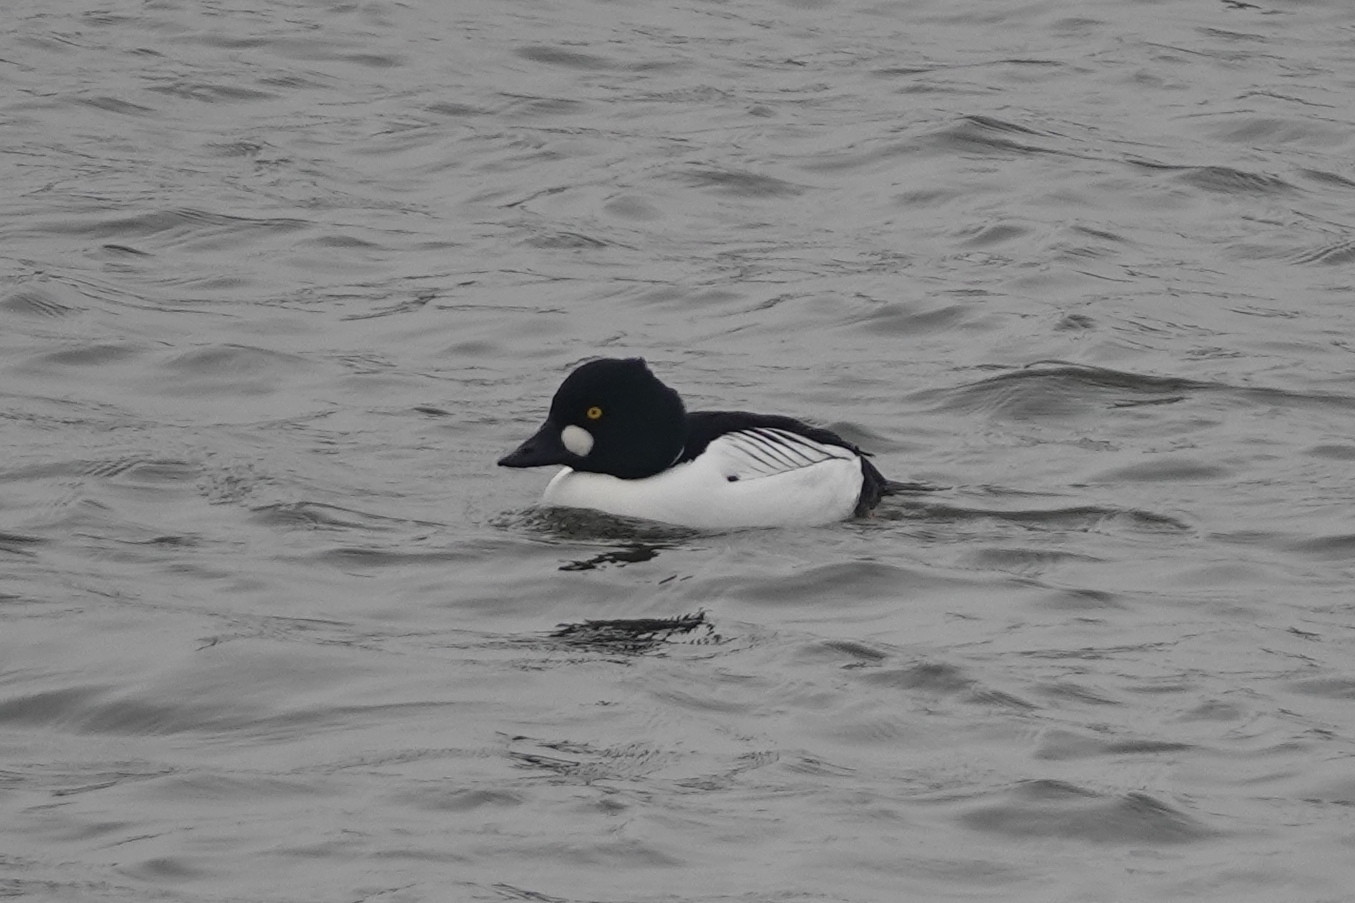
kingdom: Animalia
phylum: Chordata
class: Aves
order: Anseriformes
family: Anatidae
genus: Bucephala
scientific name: Bucephala clangula
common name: Common goldeneye
